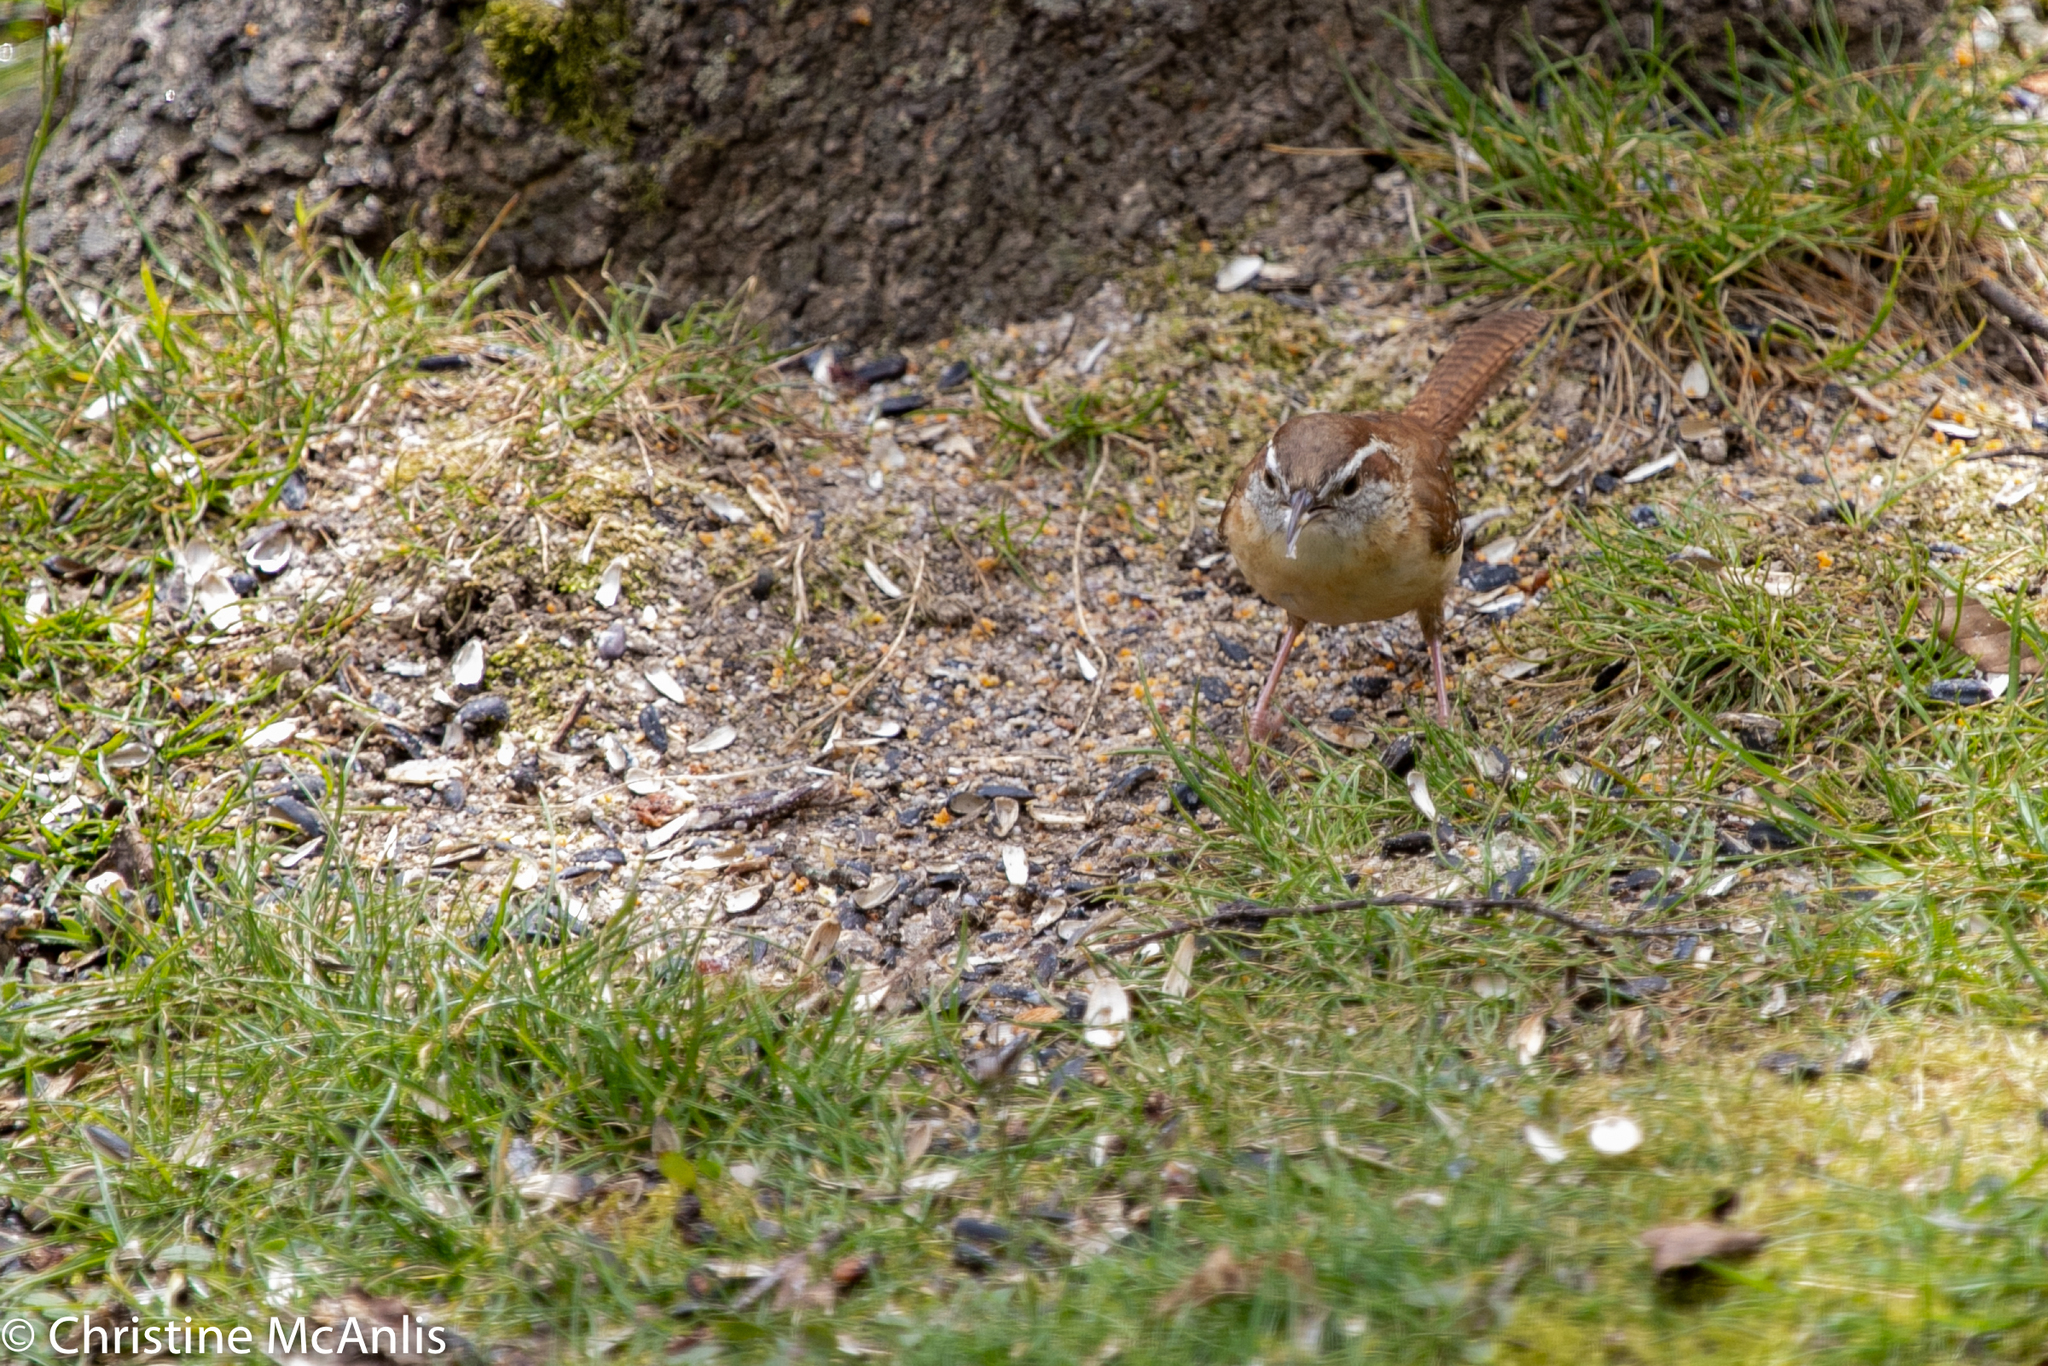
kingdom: Animalia
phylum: Chordata
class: Aves
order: Passeriformes
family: Troglodytidae
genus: Thryothorus
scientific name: Thryothorus ludovicianus
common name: Carolina wren
